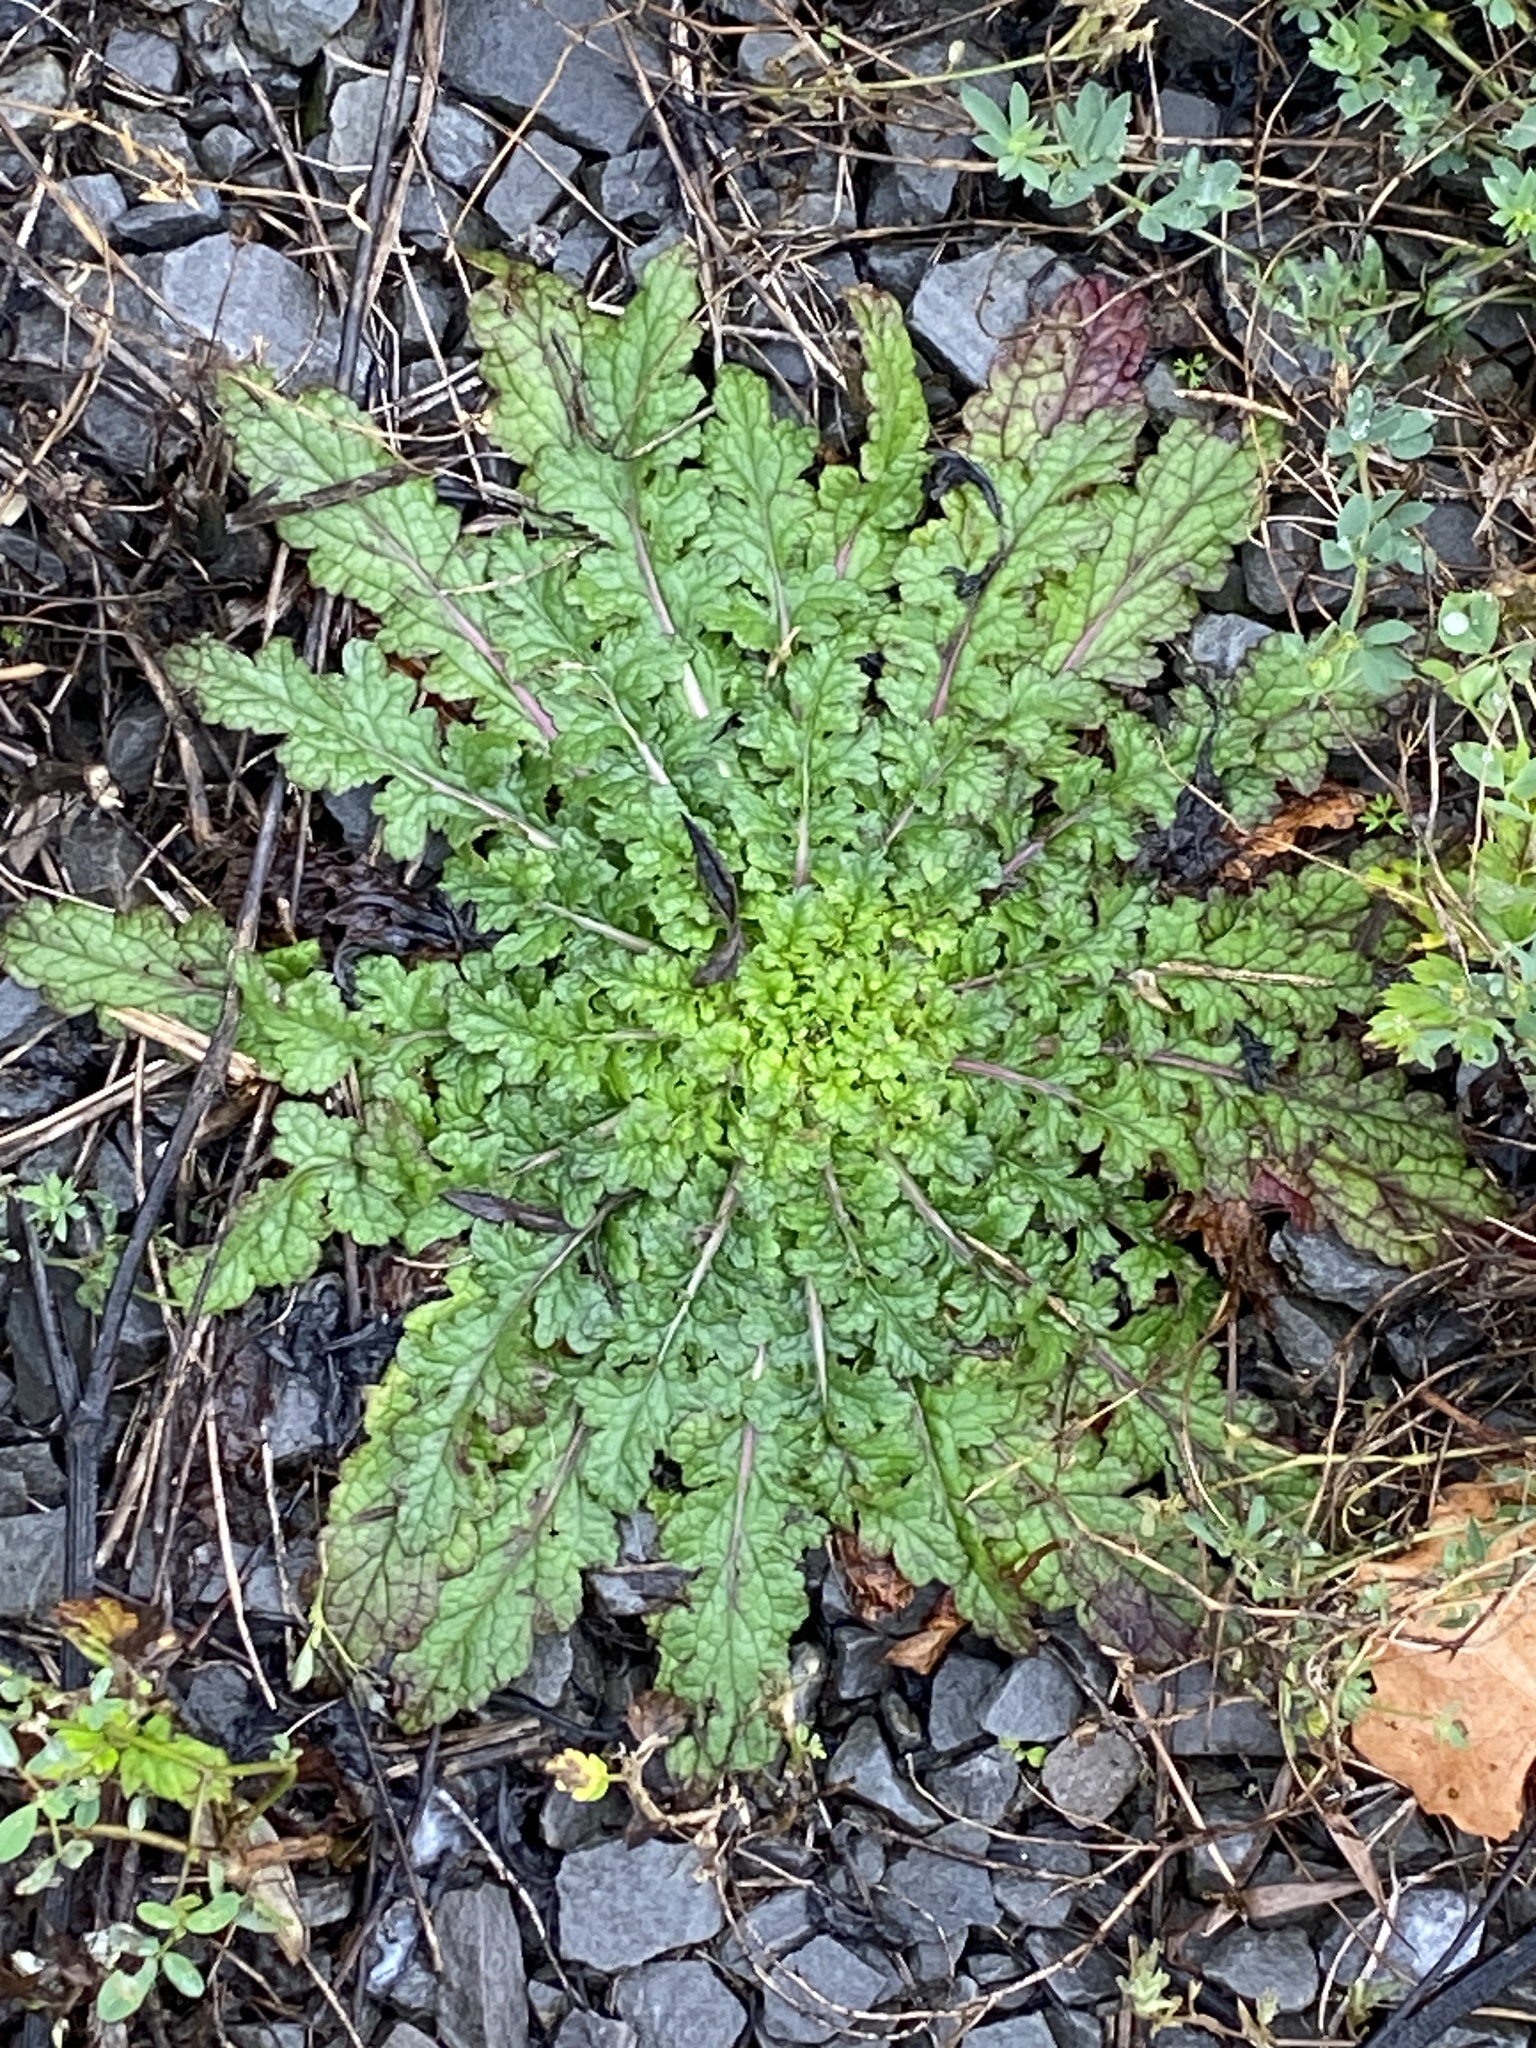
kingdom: Plantae
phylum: Tracheophyta
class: Magnoliopsida
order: Lamiales
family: Scrophulariaceae
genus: Verbascum
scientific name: Verbascum blattaria
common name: Moth mullein
